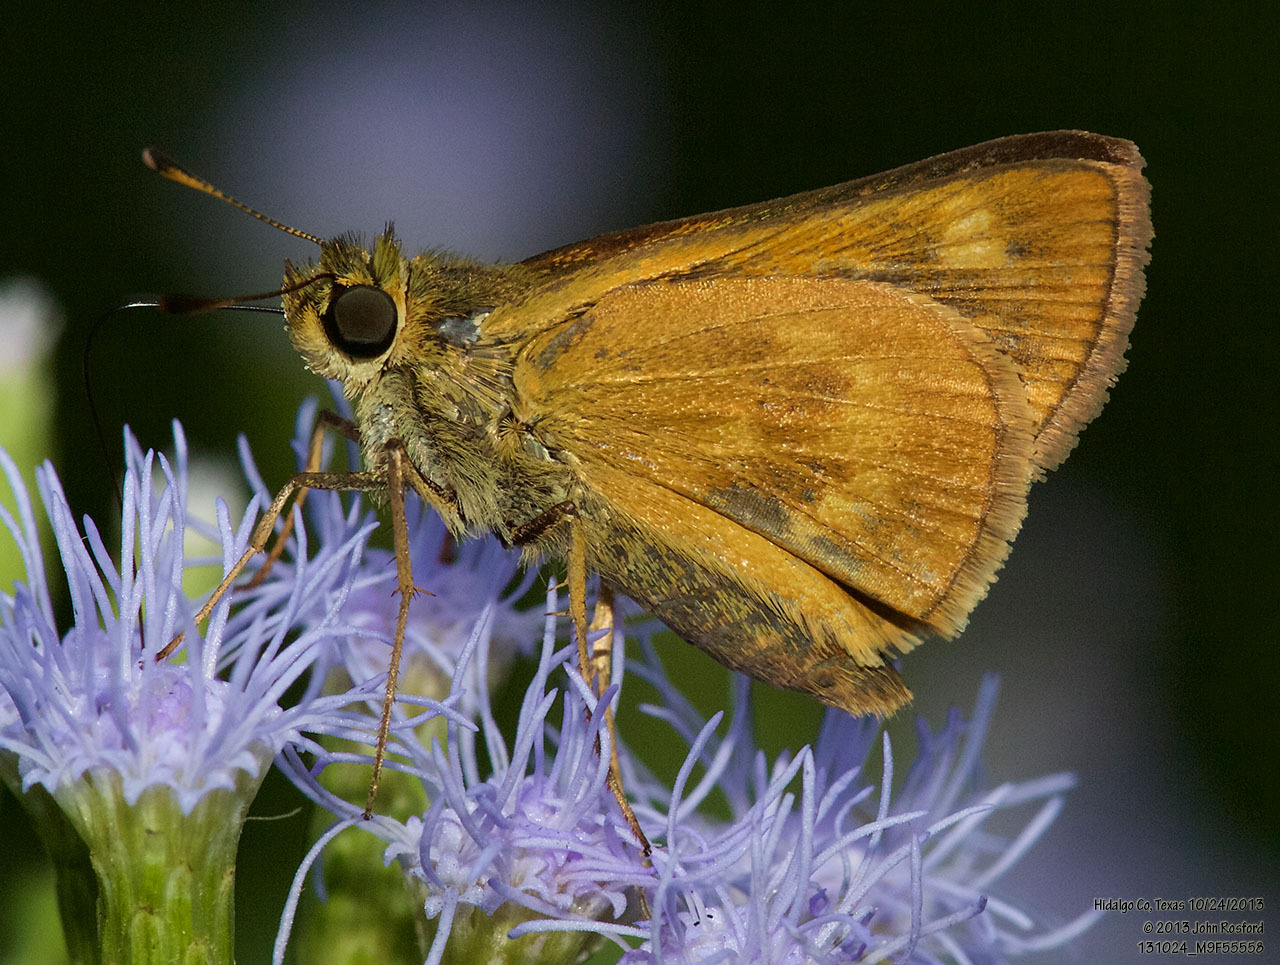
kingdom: Animalia
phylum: Arthropoda
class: Insecta
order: Lepidoptera
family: Hesperiidae
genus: Polites
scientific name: Polites otho
